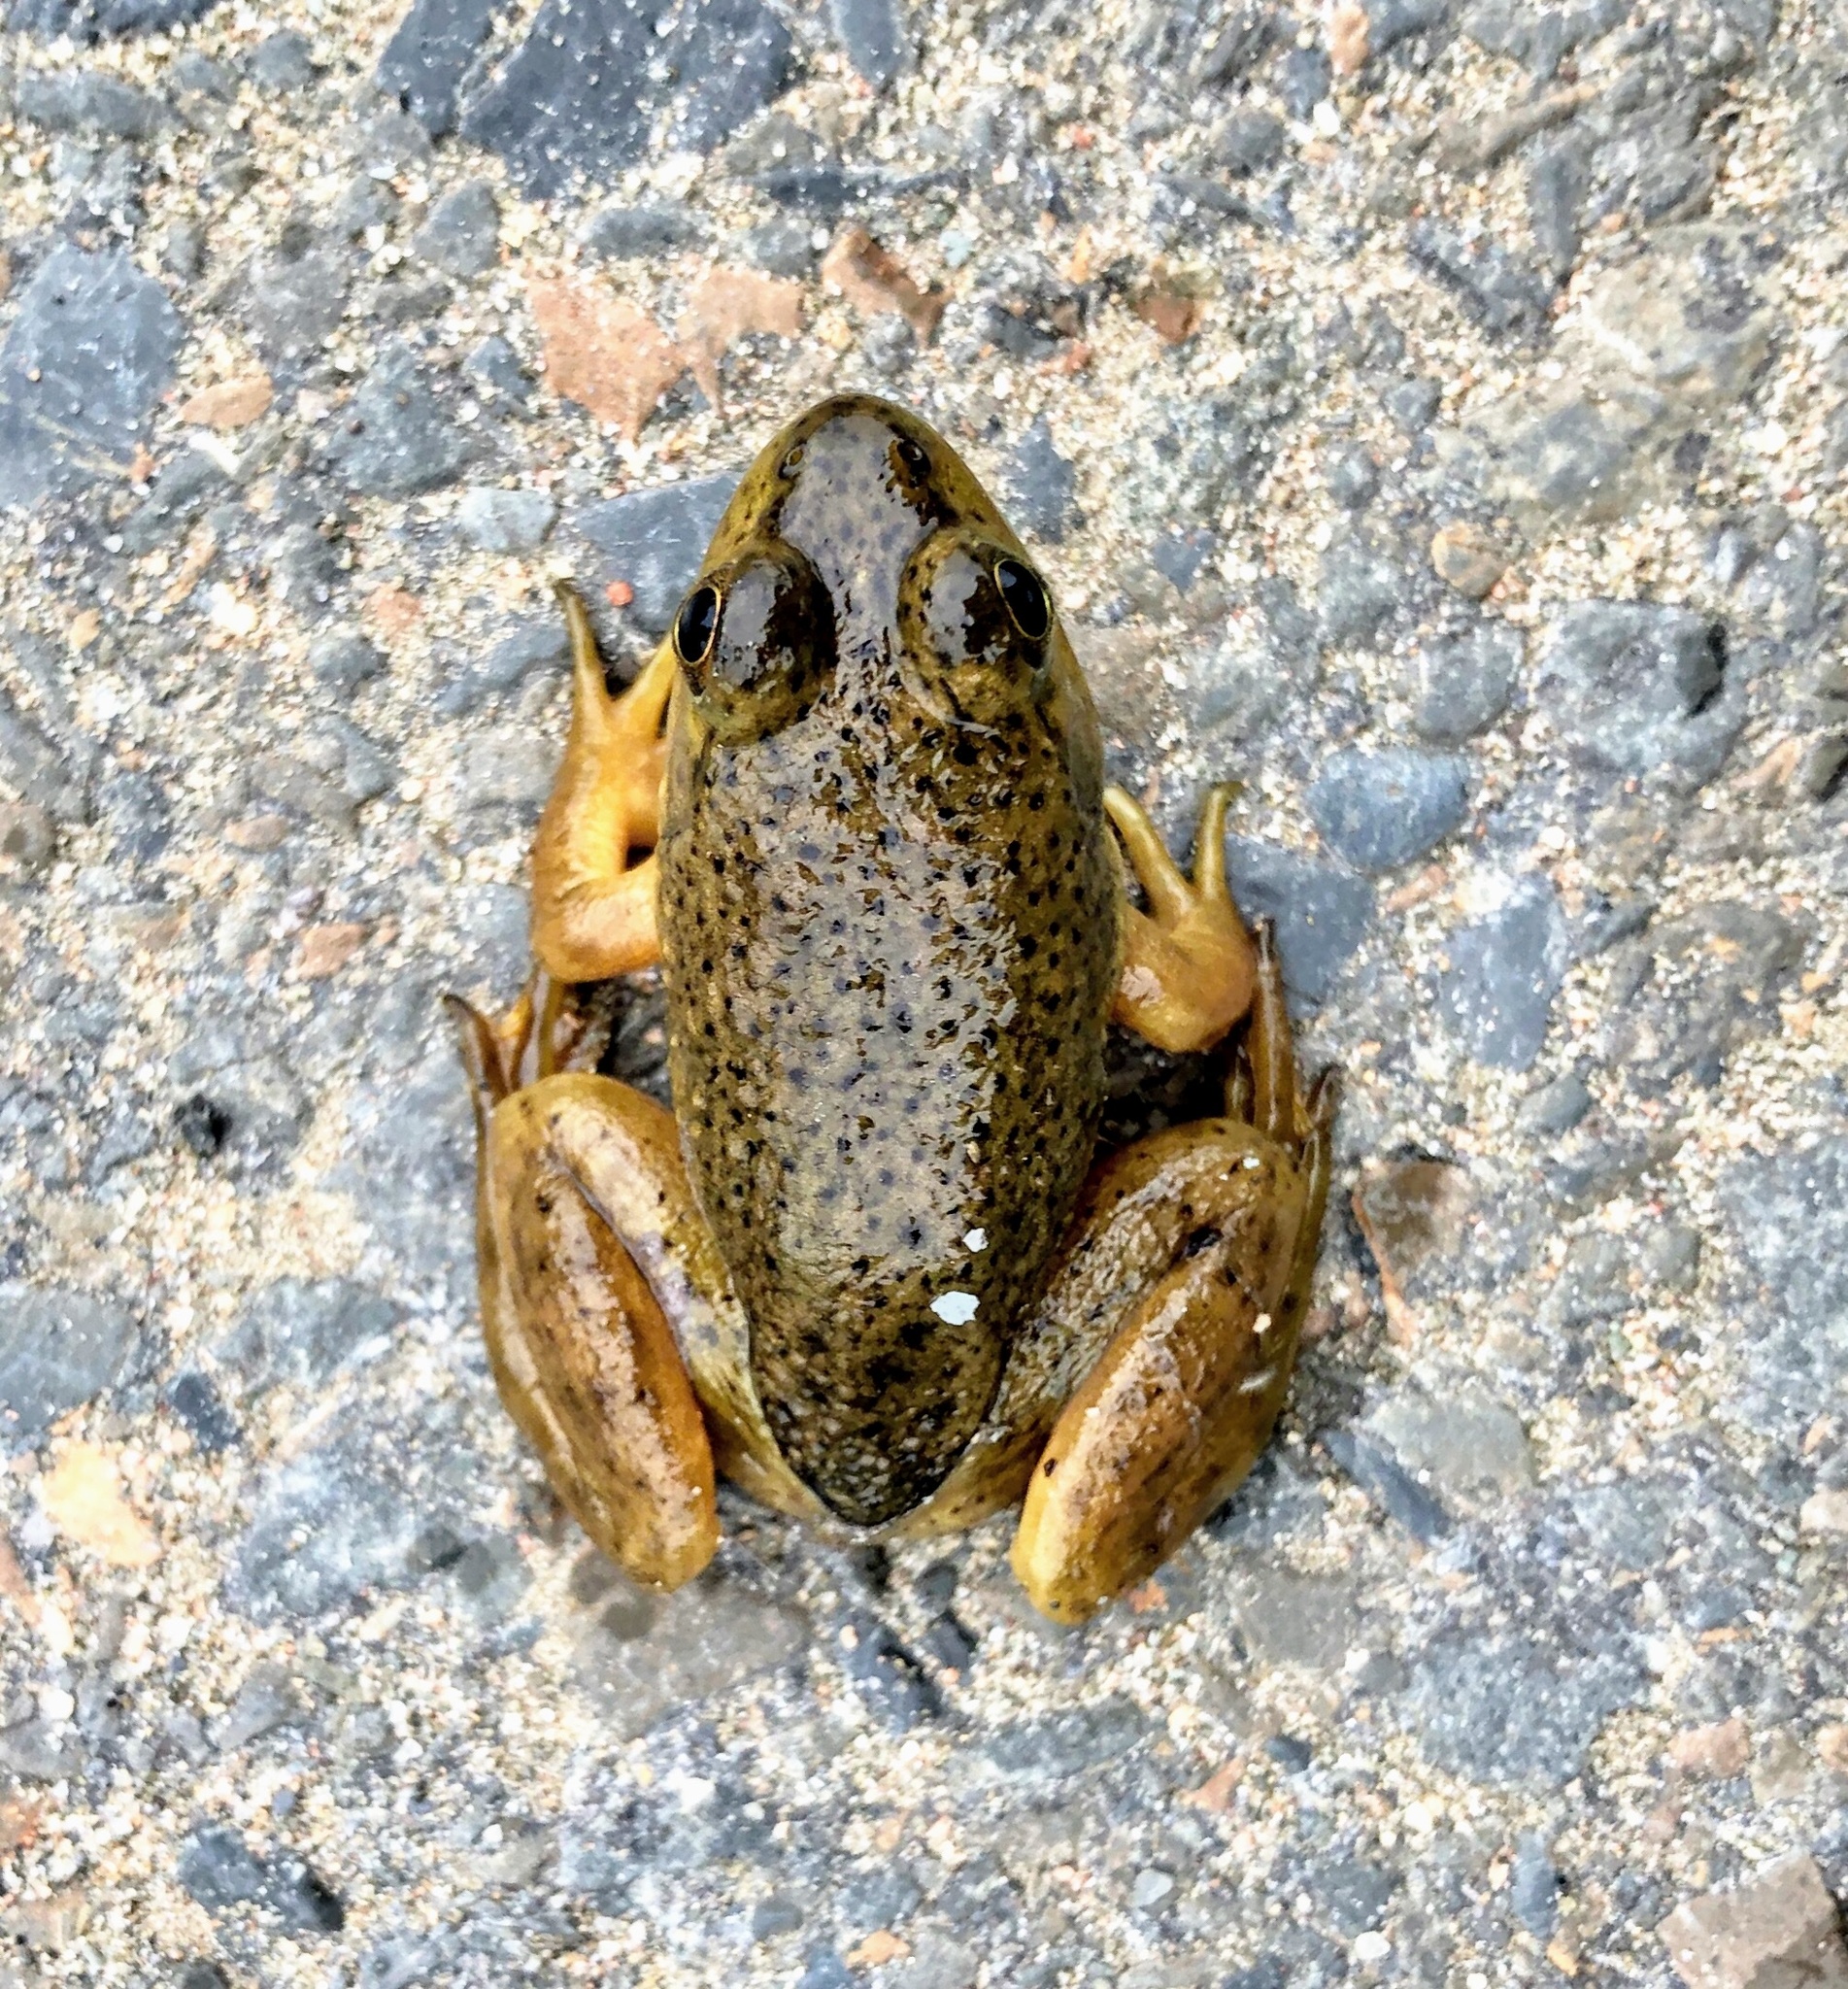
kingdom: Animalia
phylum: Chordata
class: Amphibia
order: Anura
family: Ranidae
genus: Lithobates
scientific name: Lithobates catesbeianus
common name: American bullfrog
